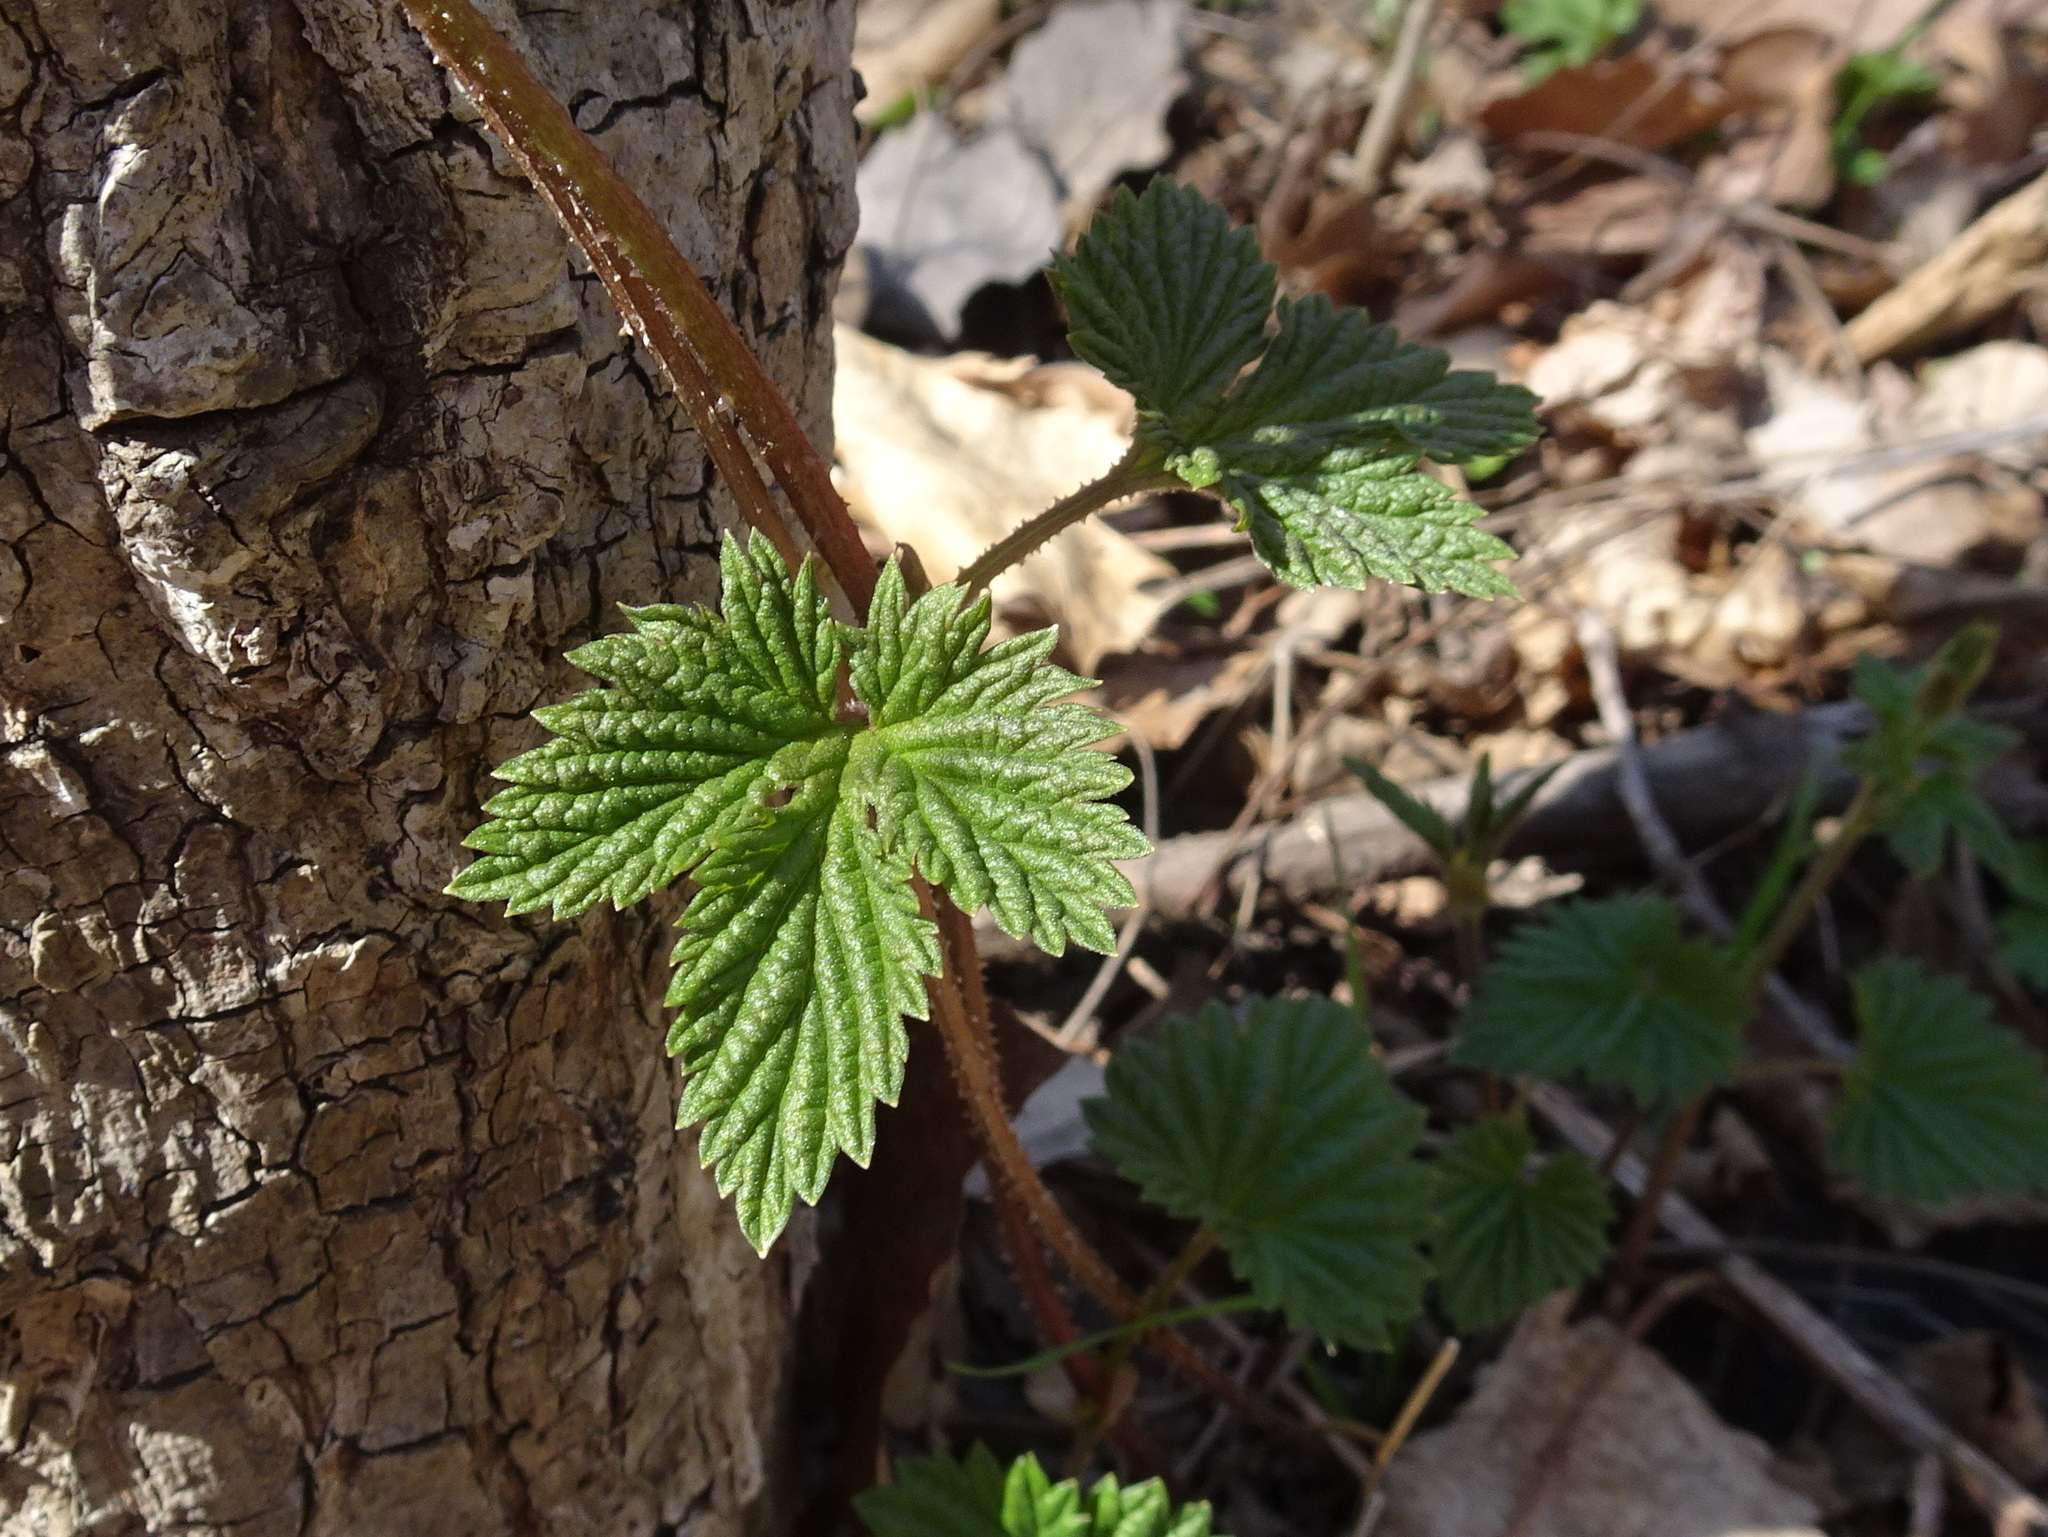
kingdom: Plantae
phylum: Tracheophyta
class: Magnoliopsida
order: Rosales
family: Cannabaceae
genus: Humulus
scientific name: Humulus lupulus
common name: Hop
